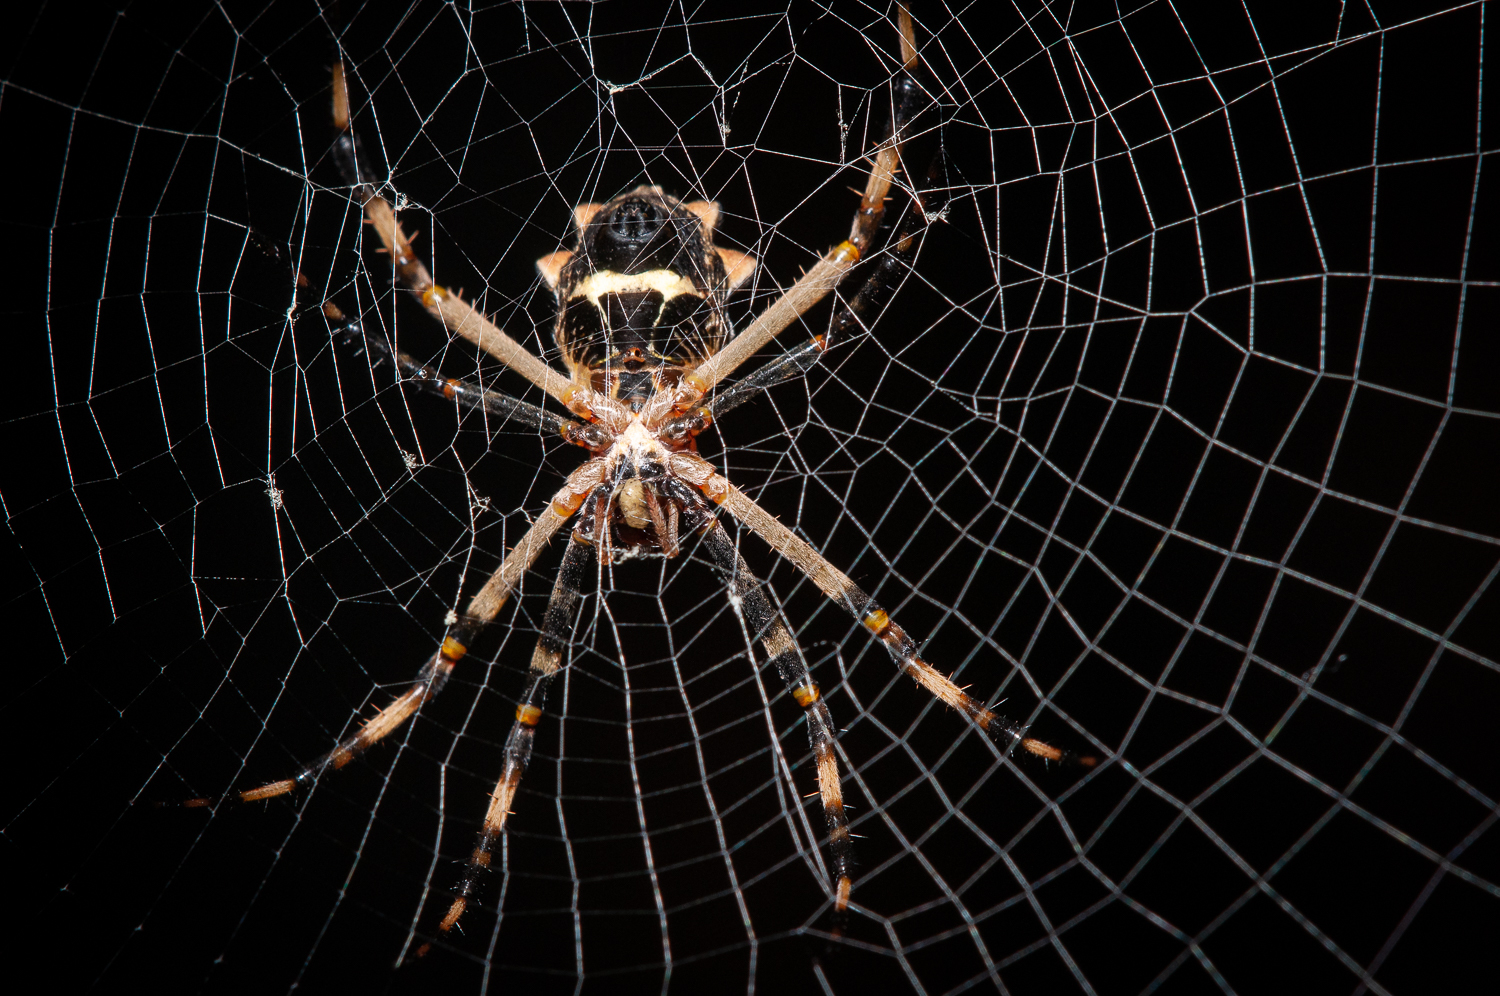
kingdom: Animalia
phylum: Arthropoda
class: Arachnida
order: Araneae
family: Araneidae
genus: Argiope
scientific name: Argiope argentata
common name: Orb weavers
